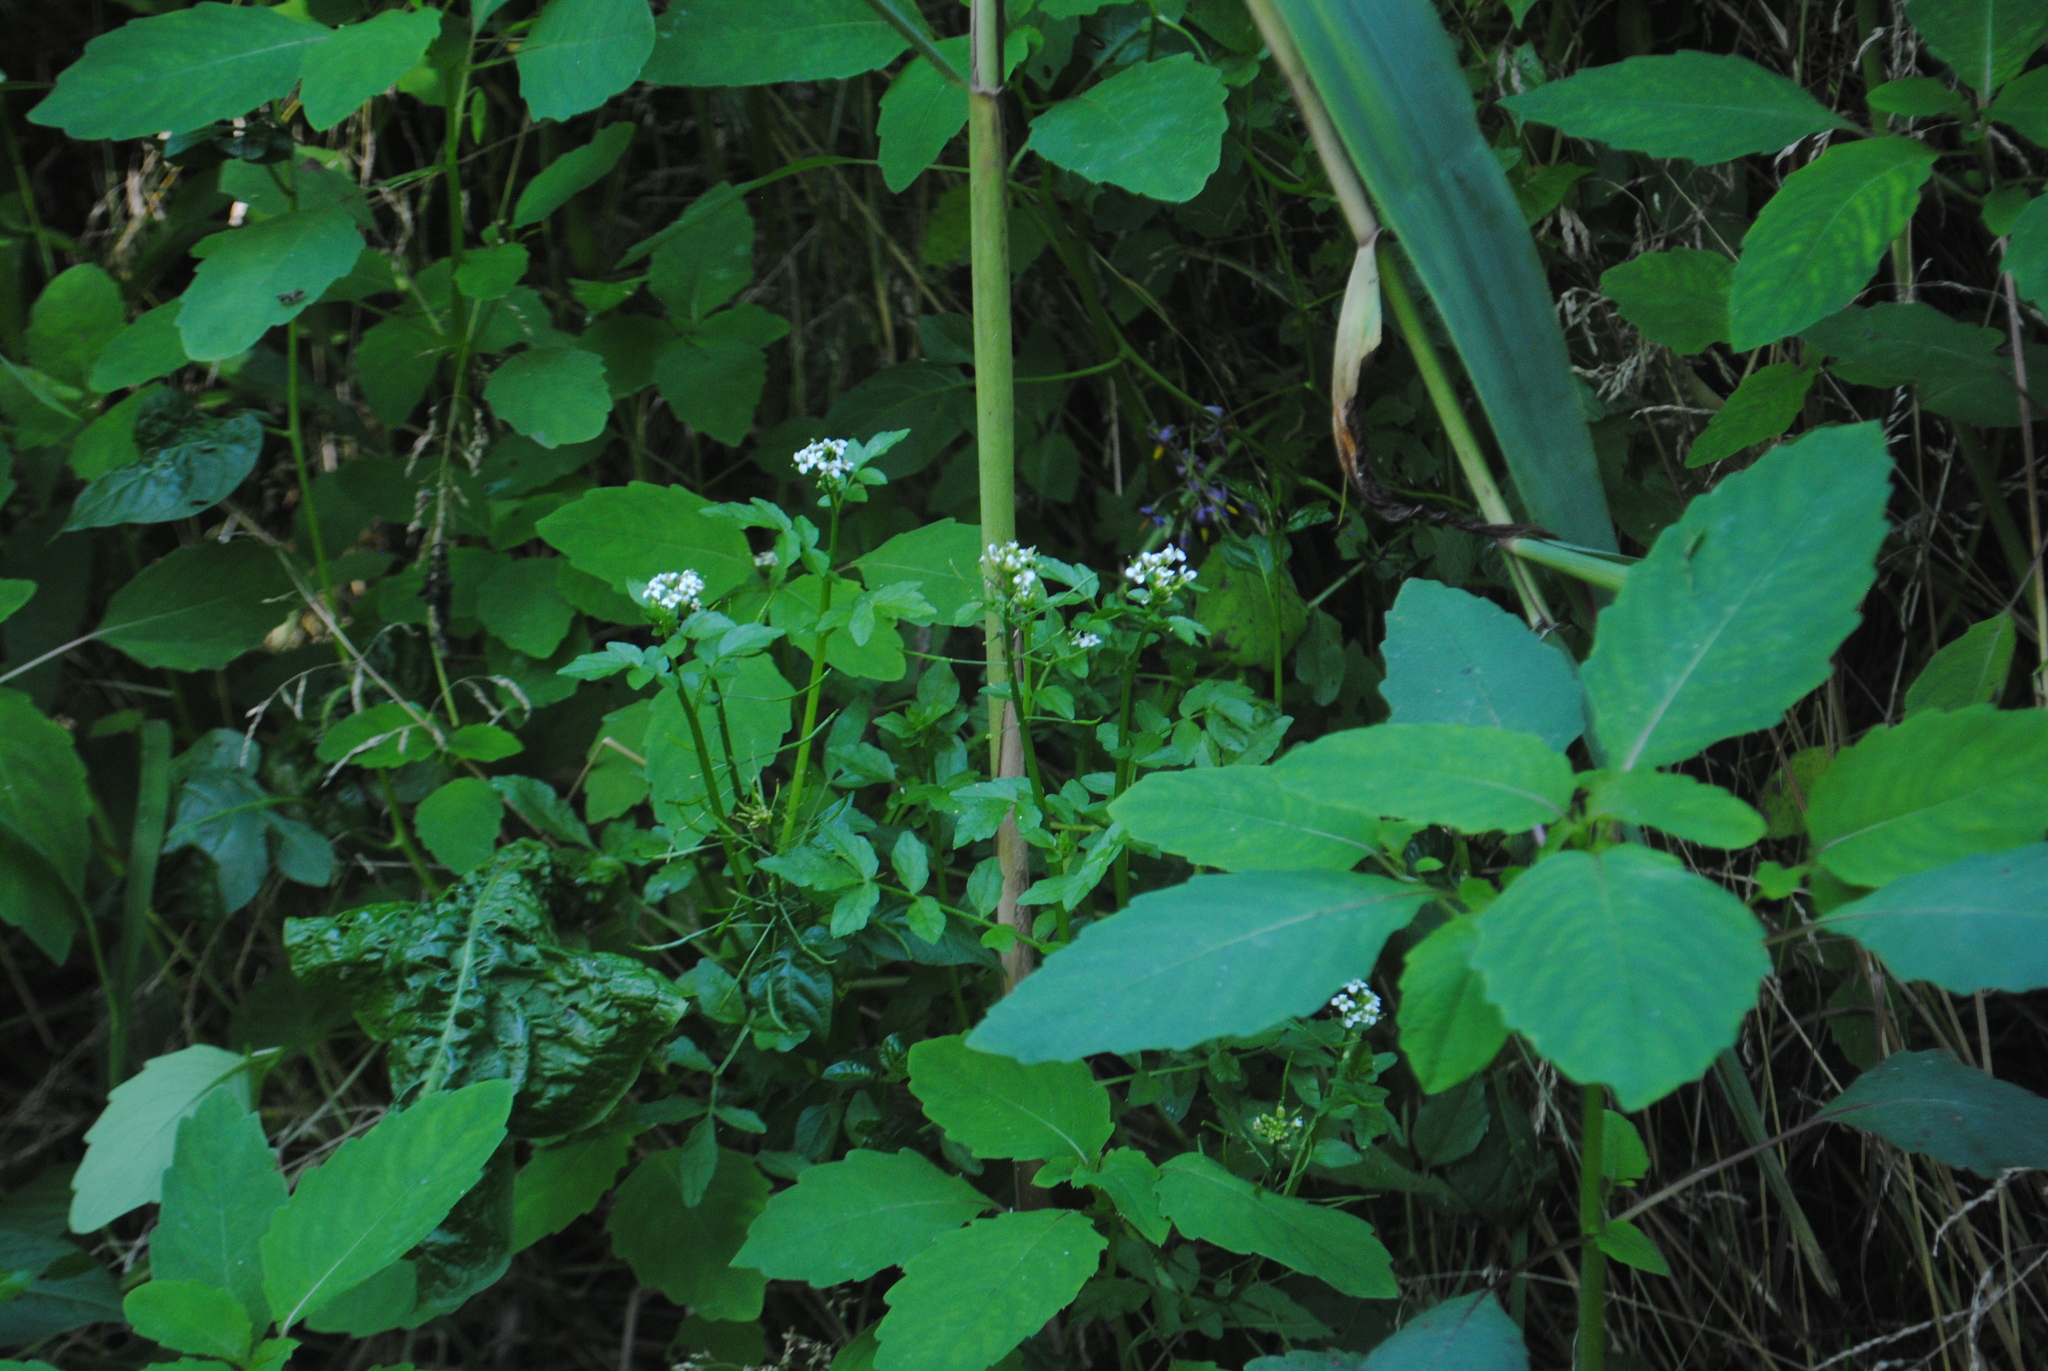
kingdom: Plantae
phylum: Tracheophyta
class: Magnoliopsida
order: Brassicales
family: Brassicaceae
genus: Nasturtium
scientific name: Nasturtium officinale
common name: Watercress
